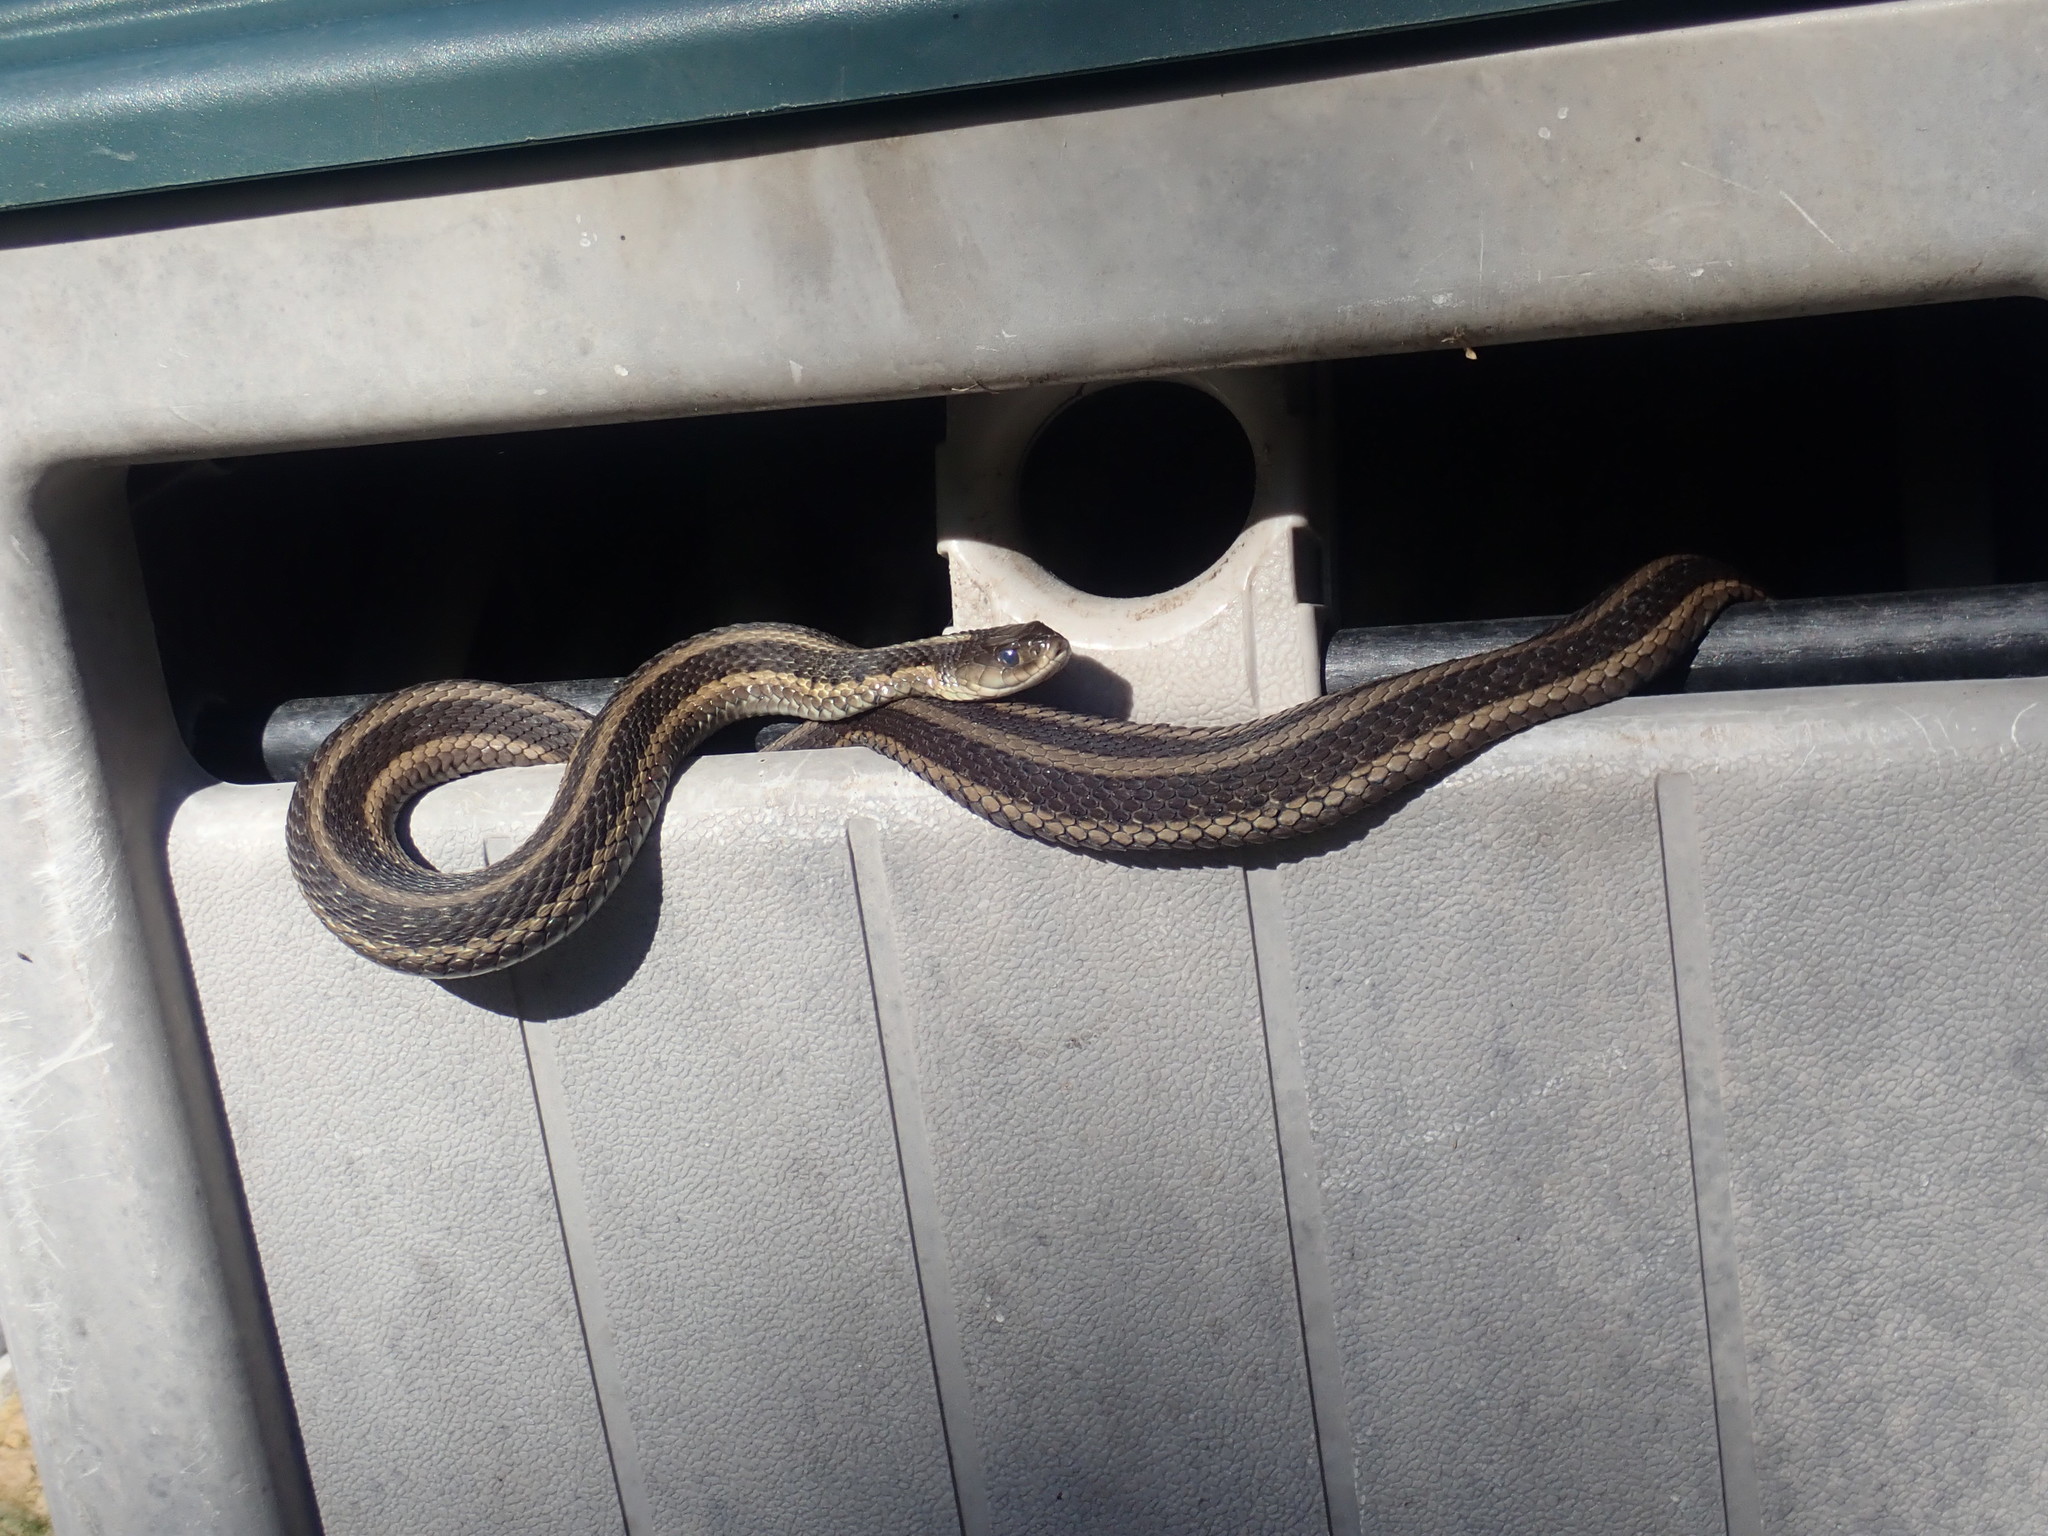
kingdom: Animalia
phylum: Chordata
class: Squamata
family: Colubridae
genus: Thamnophis
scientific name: Thamnophis sirtalis
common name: Common garter snake
